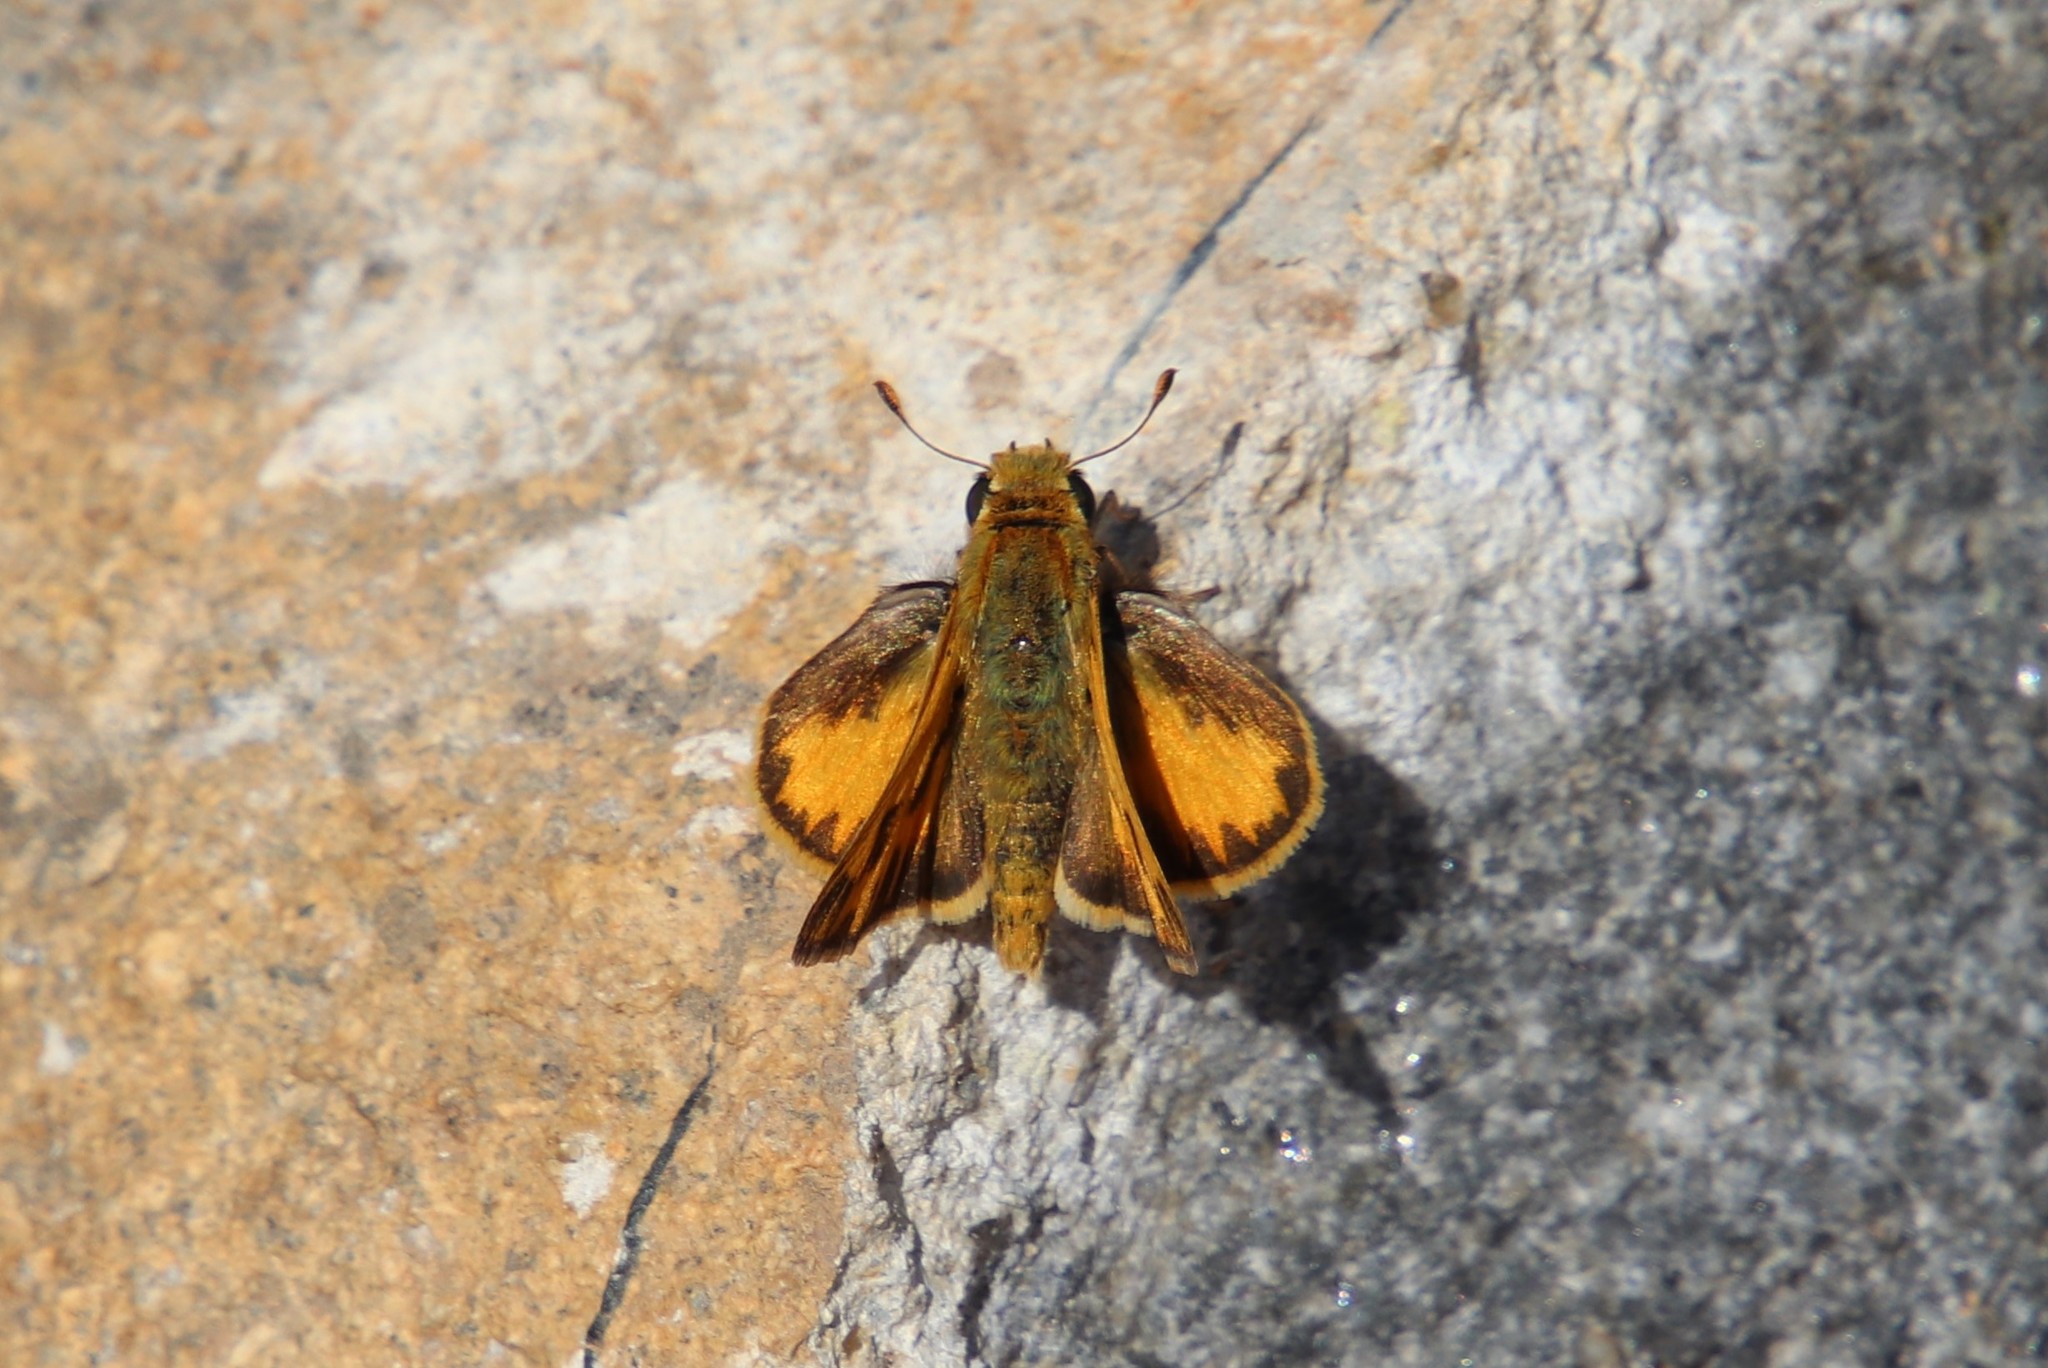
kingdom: Animalia
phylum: Arthropoda
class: Insecta
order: Lepidoptera
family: Hesperiidae
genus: Hylephila
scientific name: Hylephila phyleus
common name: Fiery skipper
